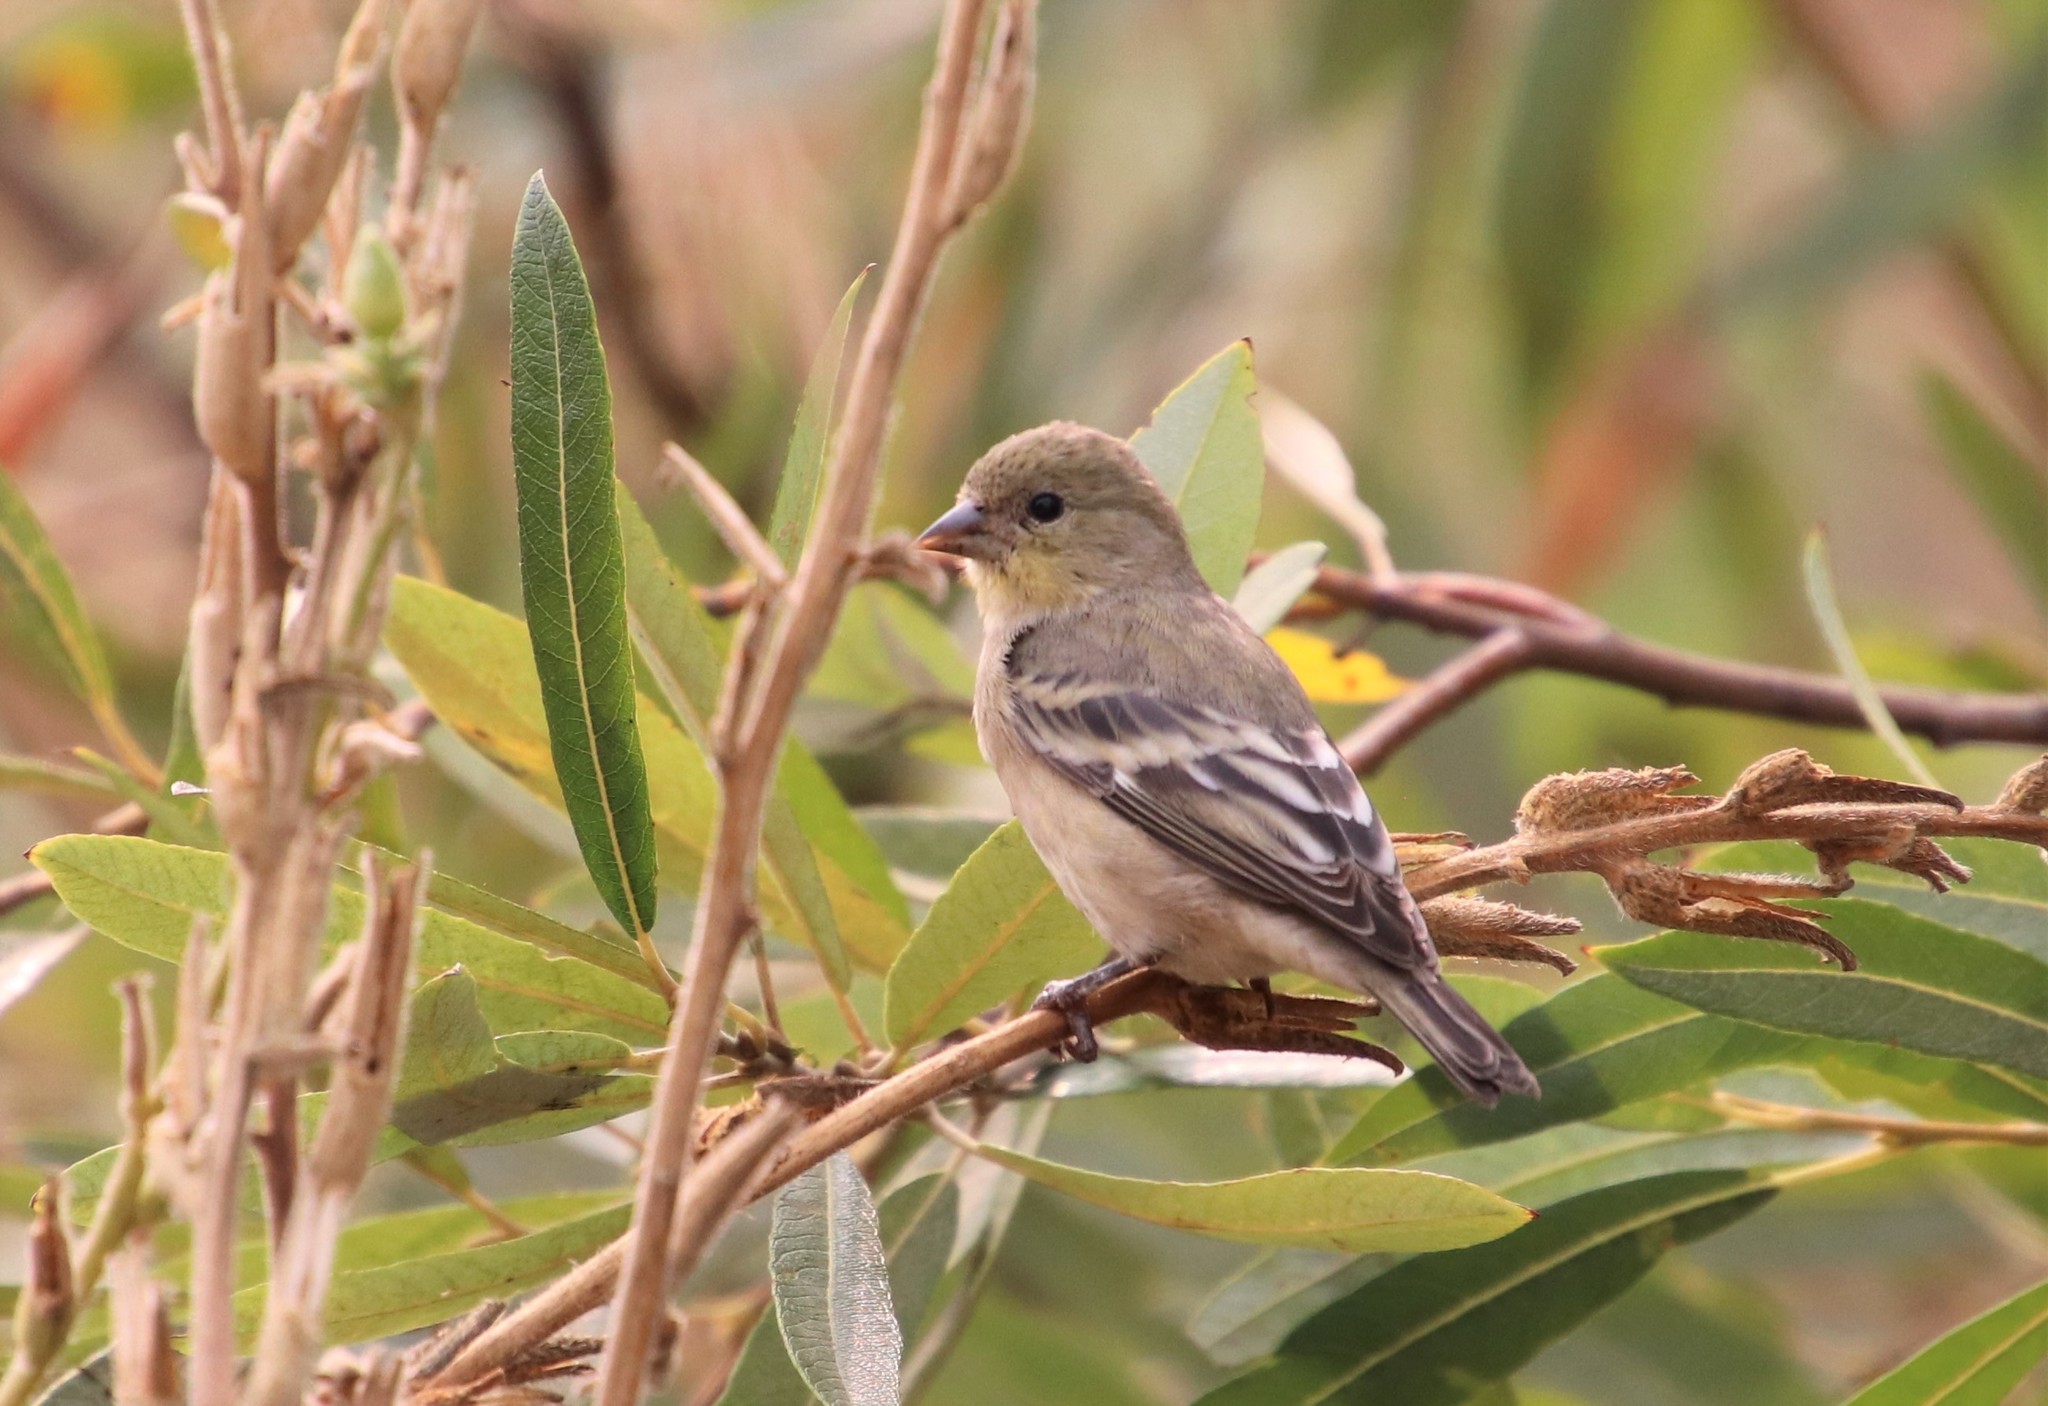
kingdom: Animalia
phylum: Chordata
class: Aves
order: Passeriformes
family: Fringillidae
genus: Spinus
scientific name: Spinus psaltria
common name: Lesser goldfinch
